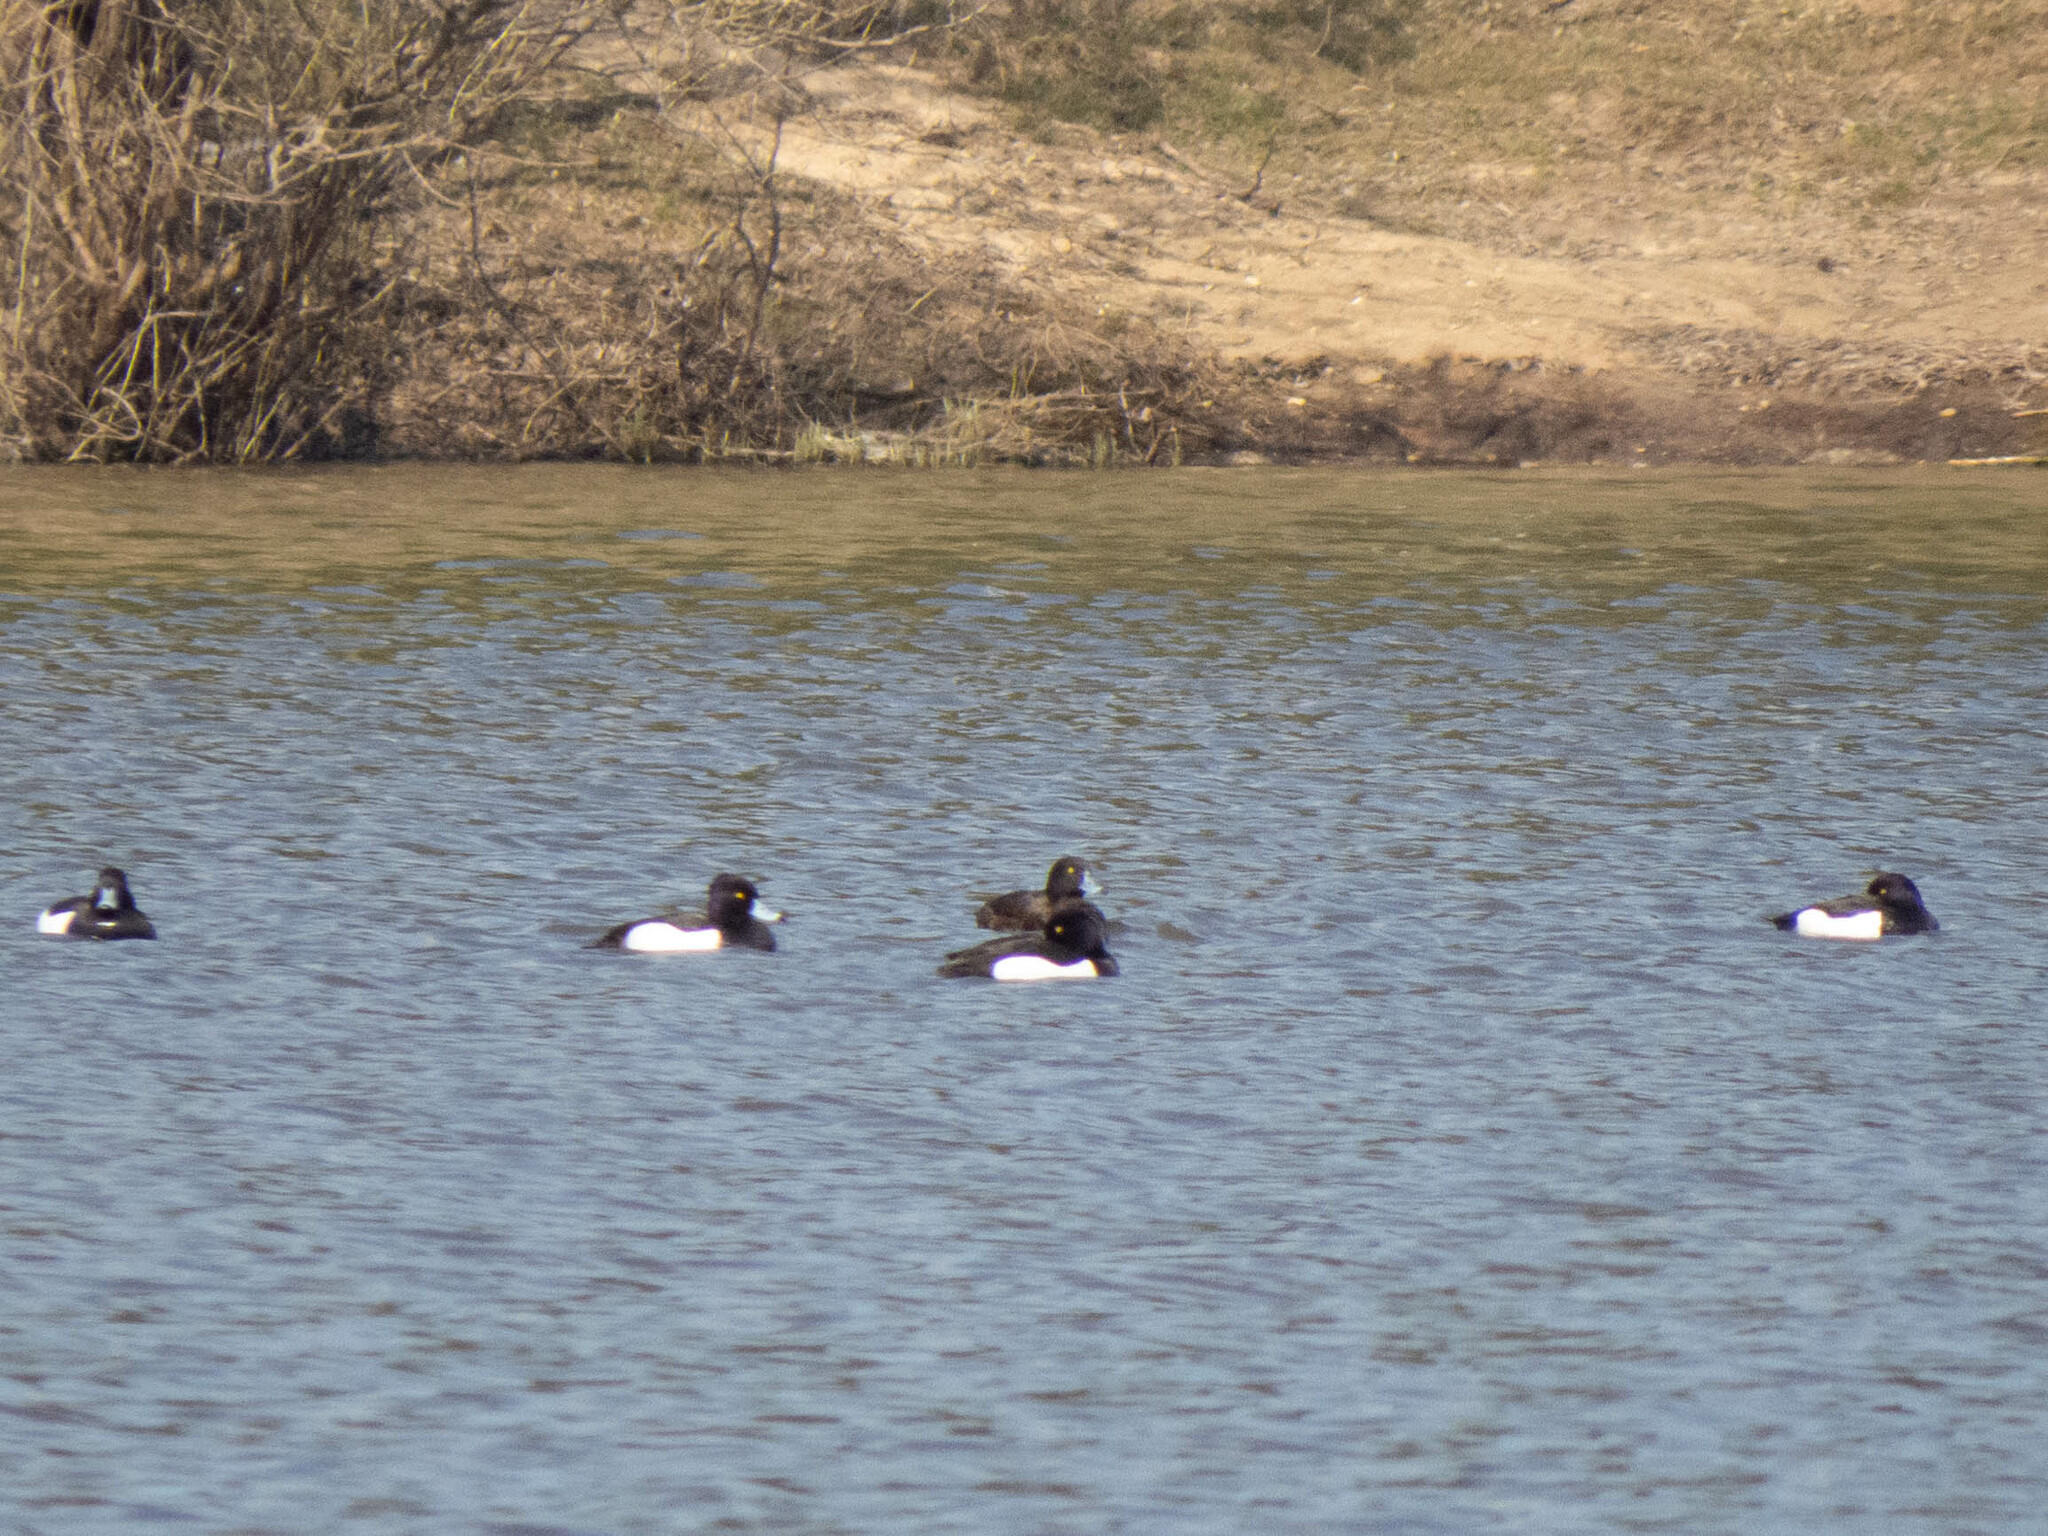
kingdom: Animalia
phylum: Chordata
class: Aves
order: Anseriformes
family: Anatidae
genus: Aythya
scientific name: Aythya fuligula
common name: Tufted duck
